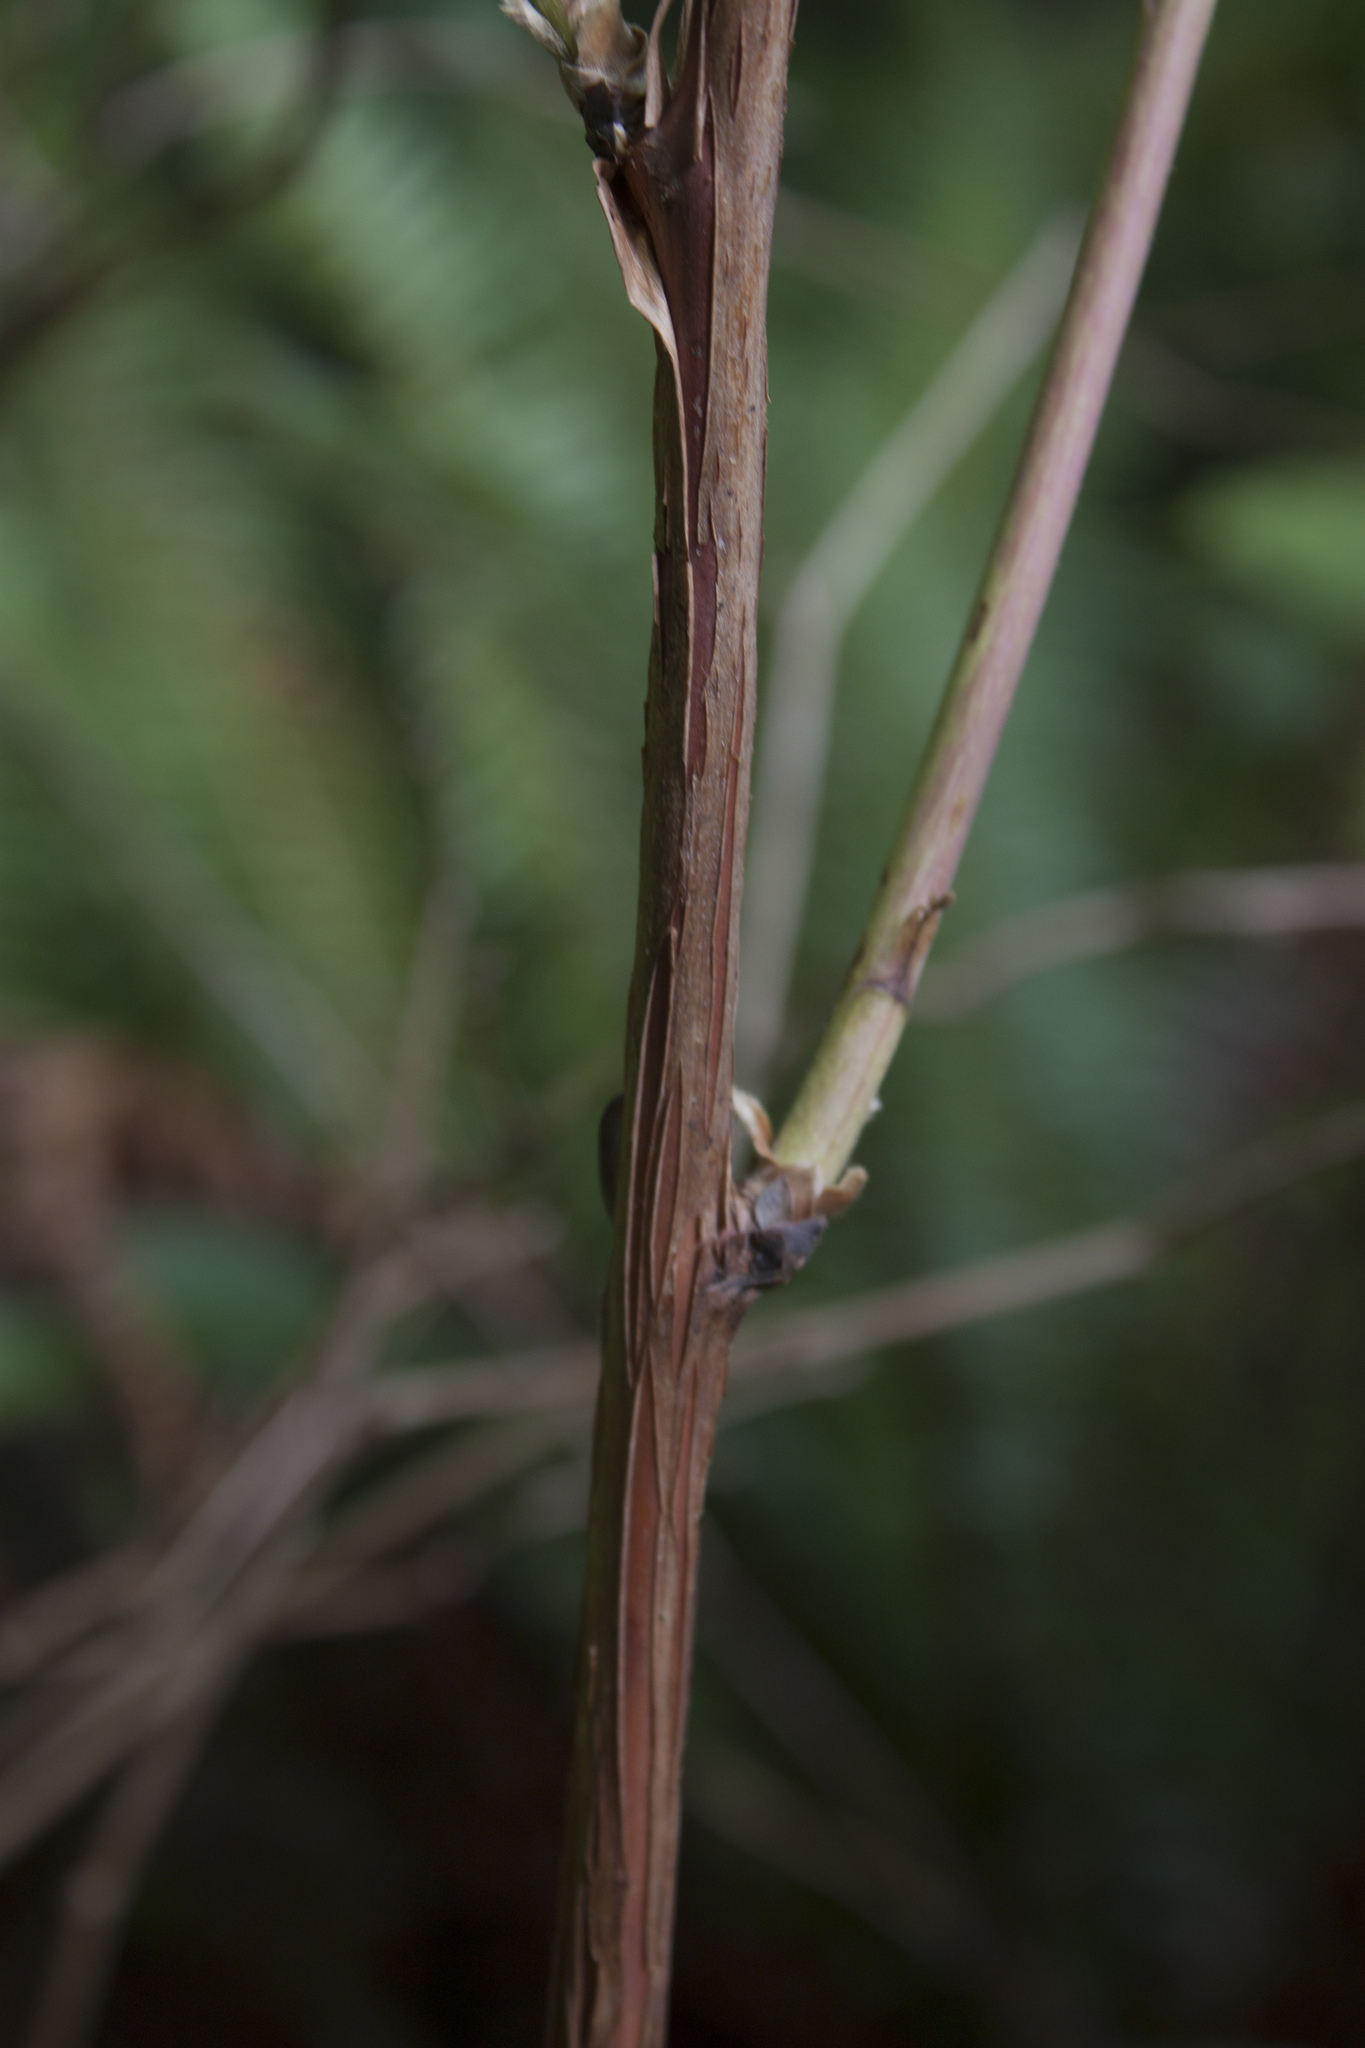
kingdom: Plantae
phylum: Tracheophyta
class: Magnoliopsida
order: Rosales
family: Rosaceae
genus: Rubus
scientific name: Rubus parviflorus
